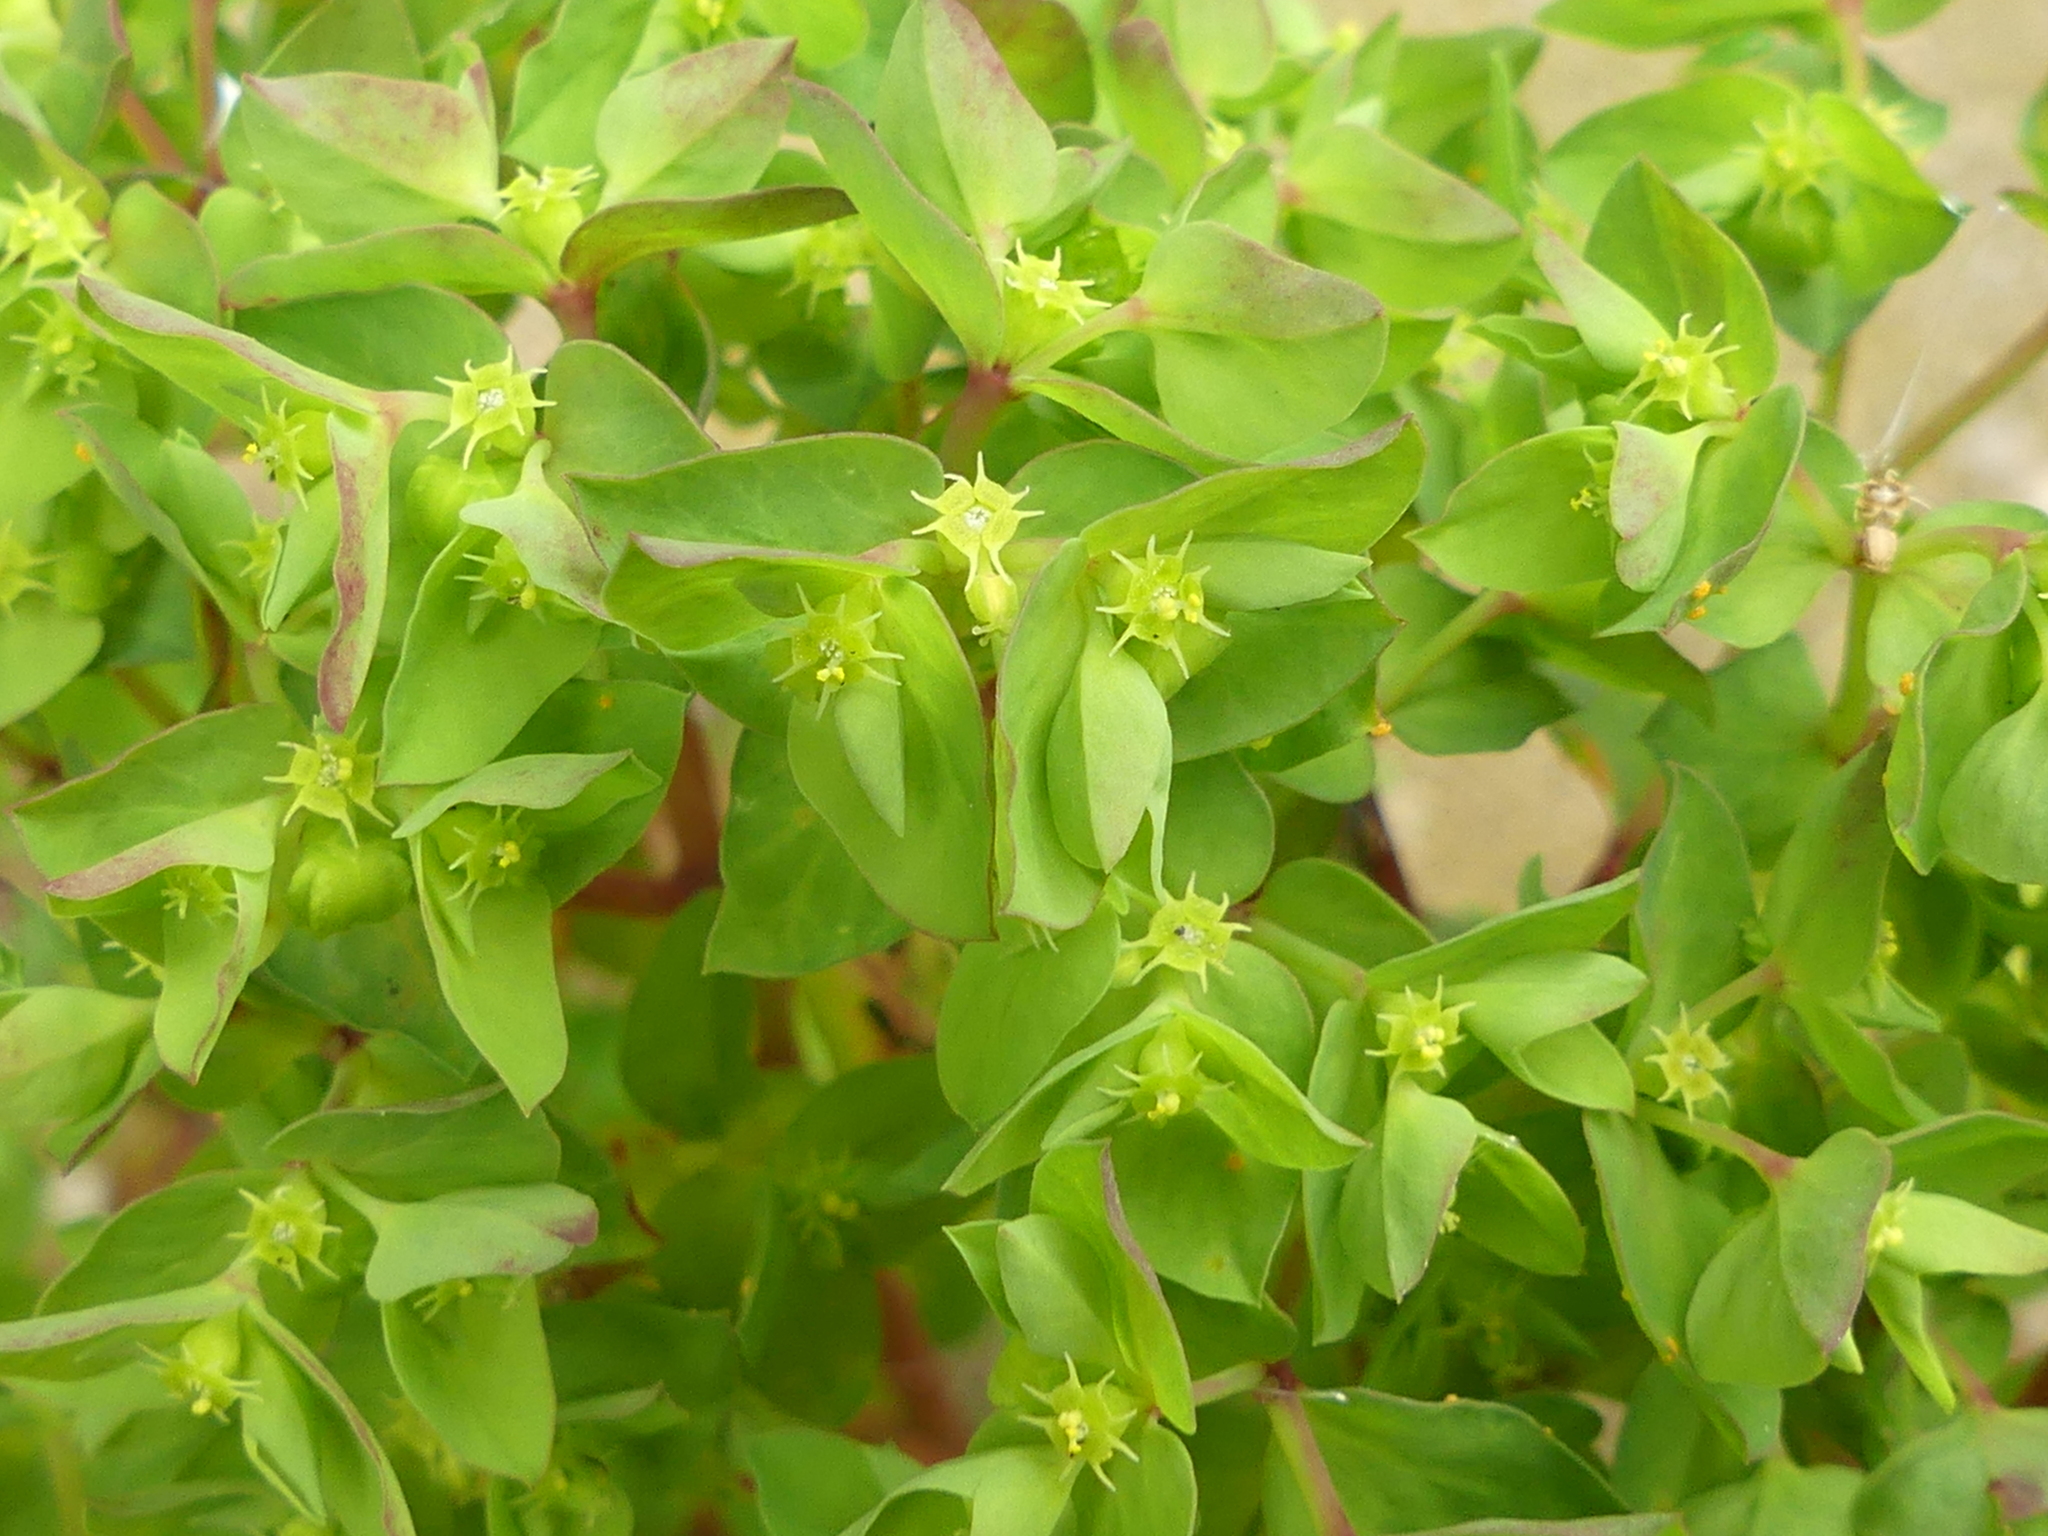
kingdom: Plantae
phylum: Tracheophyta
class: Magnoliopsida
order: Malpighiales
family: Euphorbiaceae
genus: Euphorbia
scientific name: Euphorbia peplus
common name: Petty spurge
